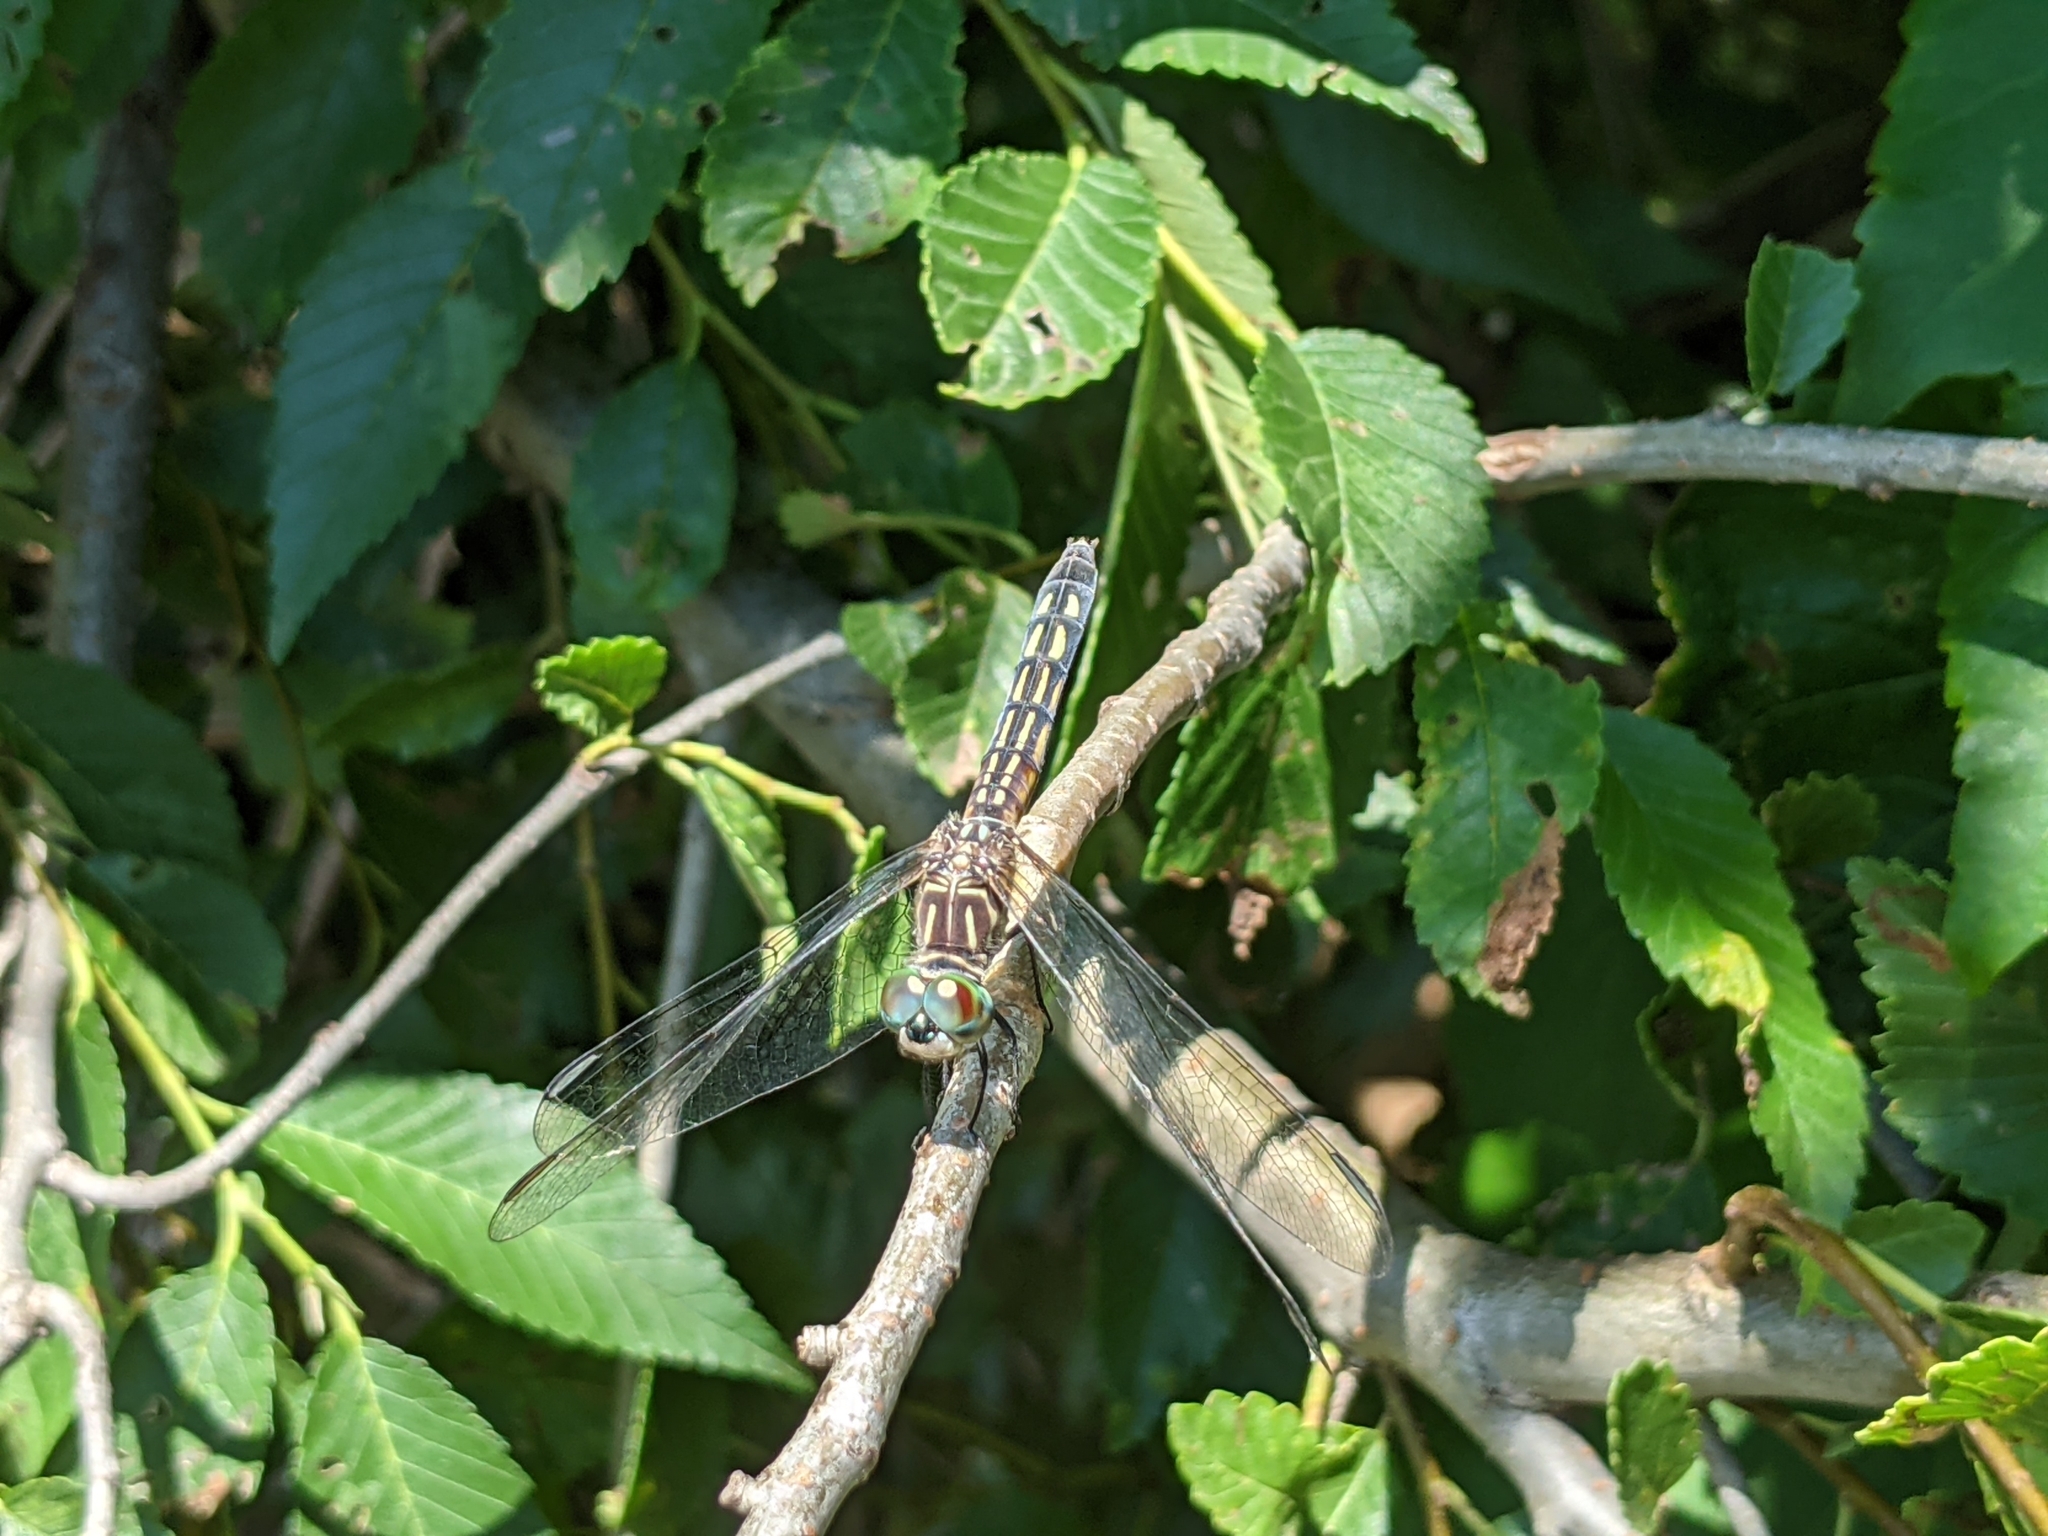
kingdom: Animalia
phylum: Arthropoda
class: Insecta
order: Odonata
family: Libellulidae
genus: Pachydiplax
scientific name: Pachydiplax longipennis
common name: Blue dasher
